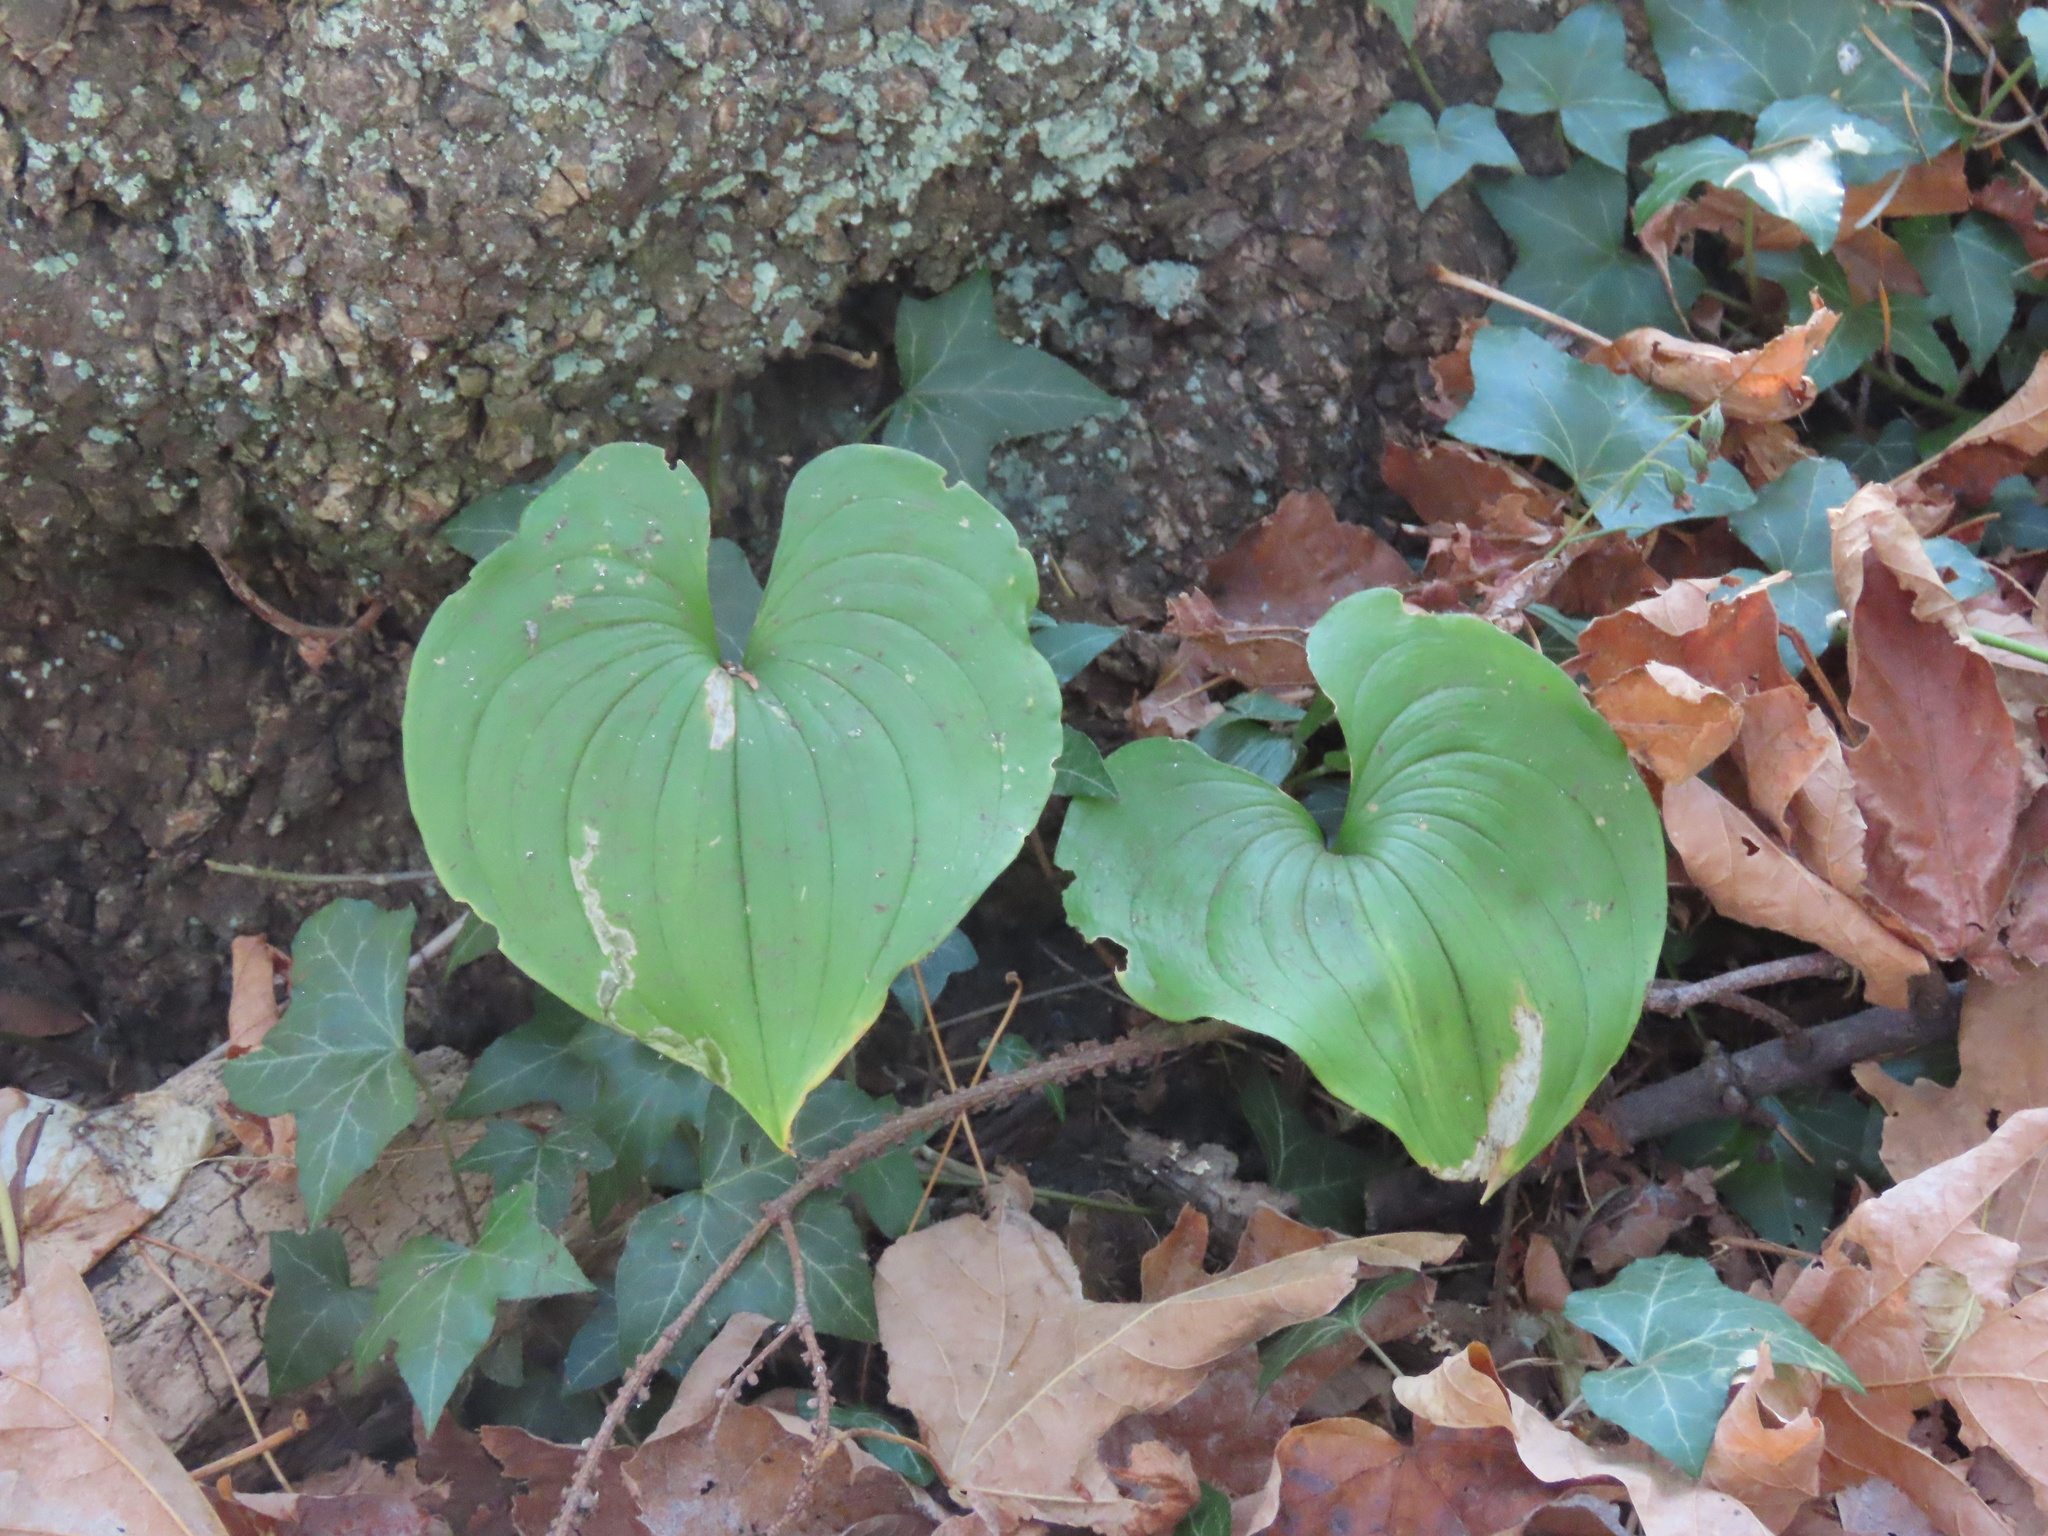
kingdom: Plantae
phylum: Tracheophyta
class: Liliopsida
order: Asparagales
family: Asparagaceae
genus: Maianthemum
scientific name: Maianthemum dilatatum
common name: False lily-of-the-valley
